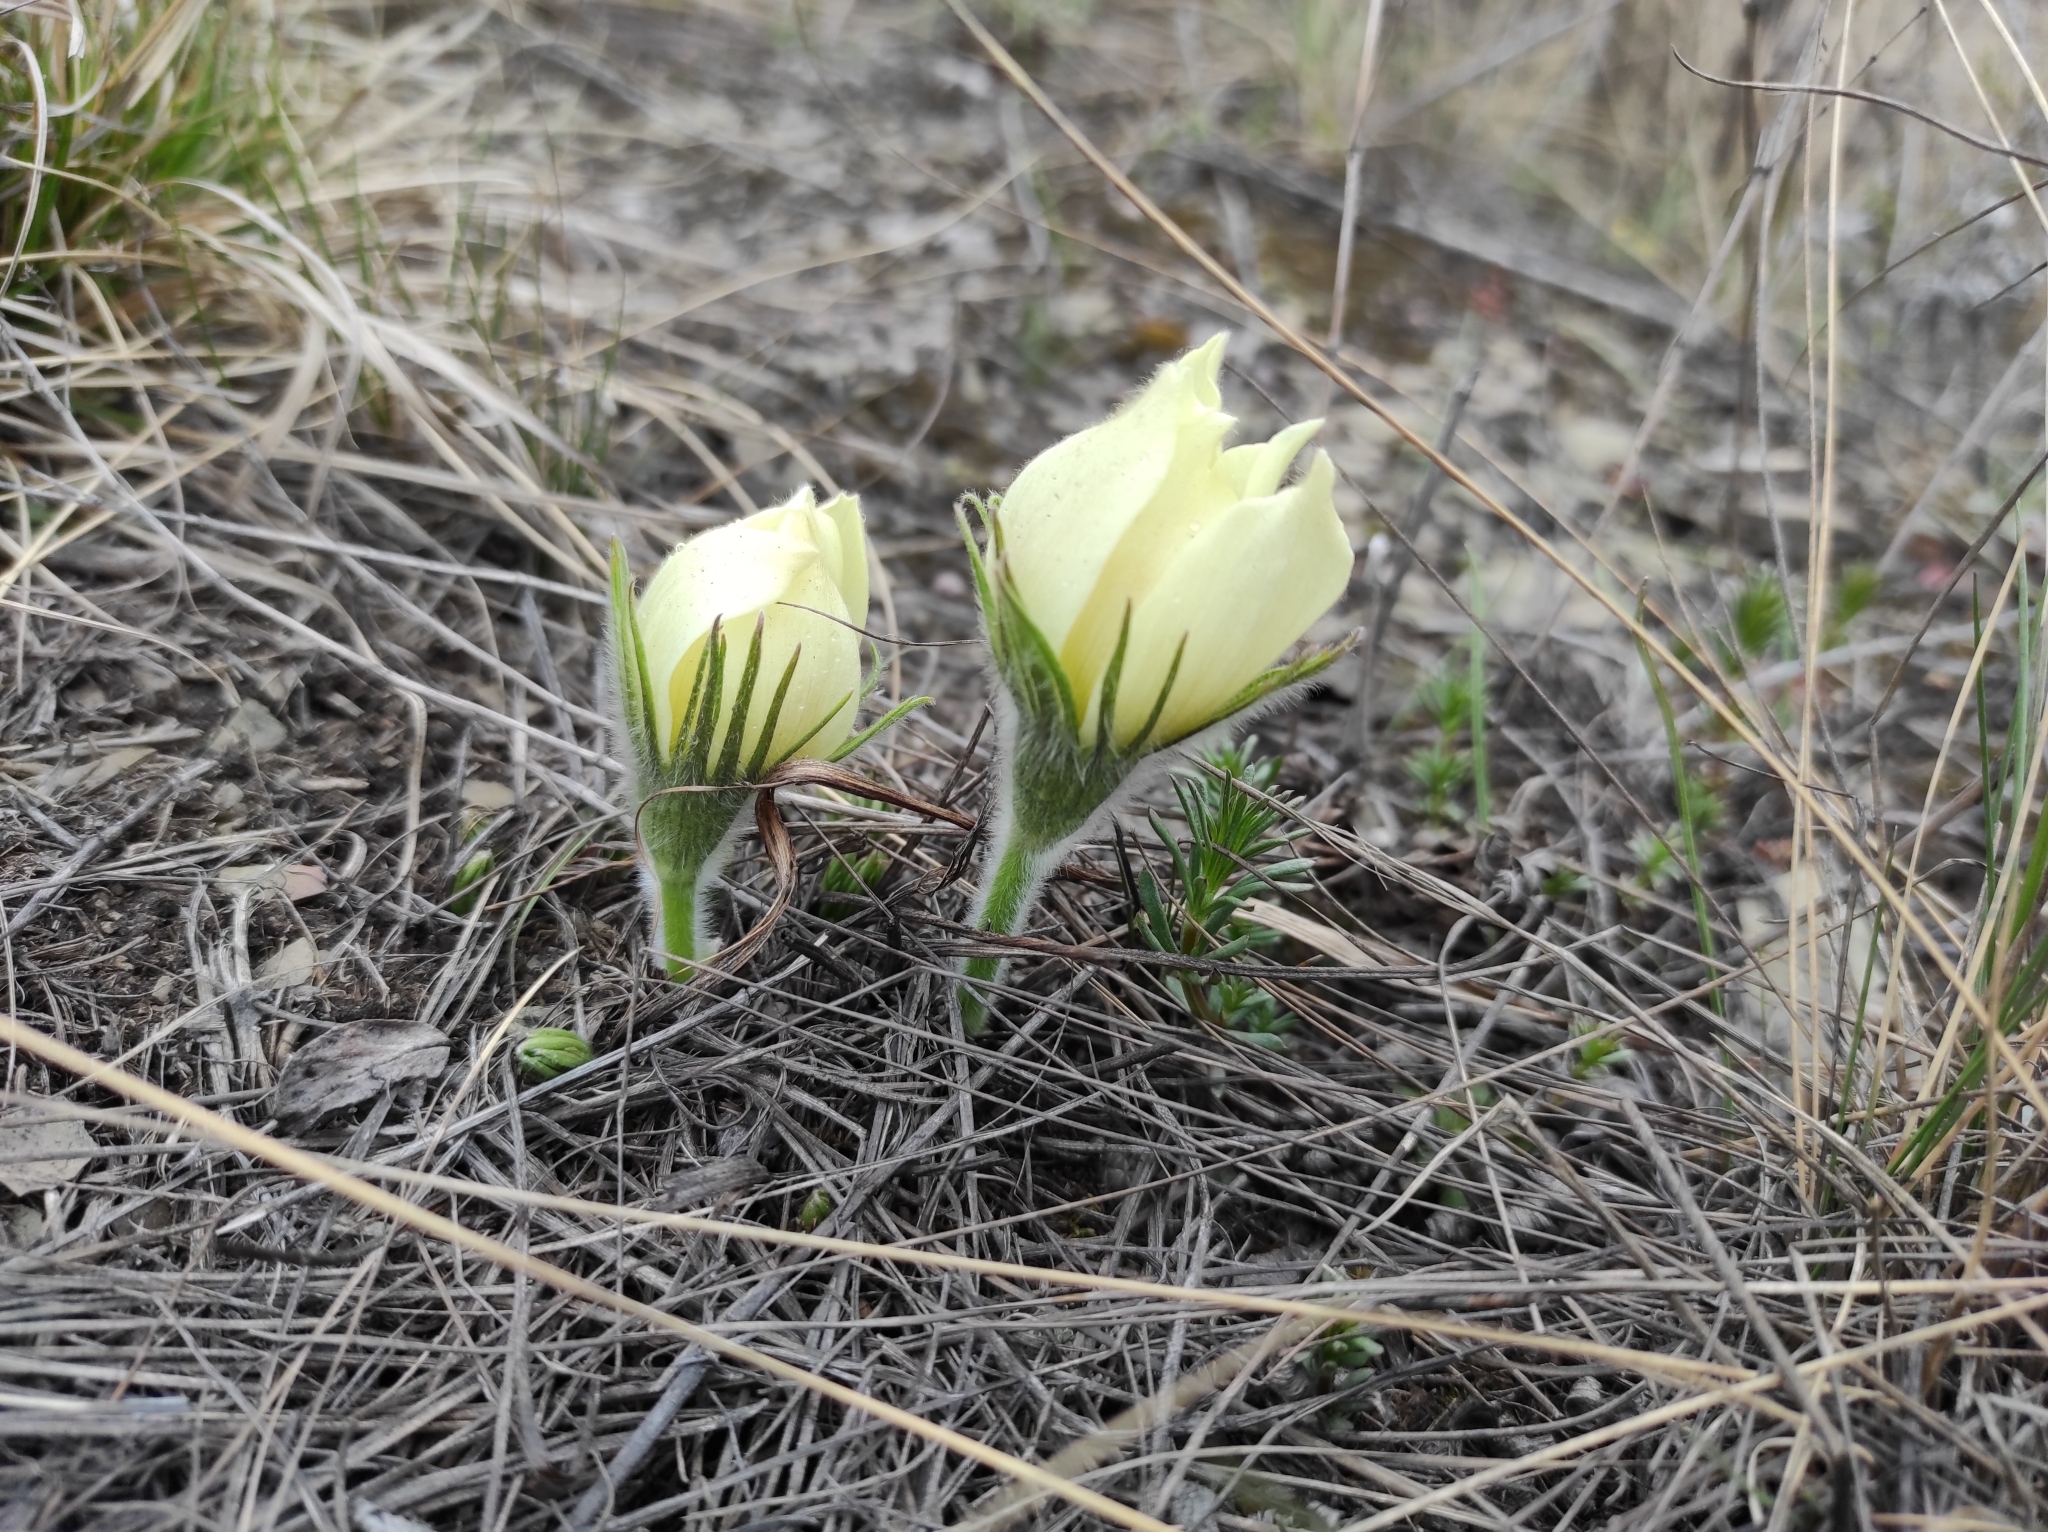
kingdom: Plantae
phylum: Tracheophyta
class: Magnoliopsida
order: Ranunculales
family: Ranunculaceae
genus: Pulsatilla
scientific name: Pulsatilla patens
